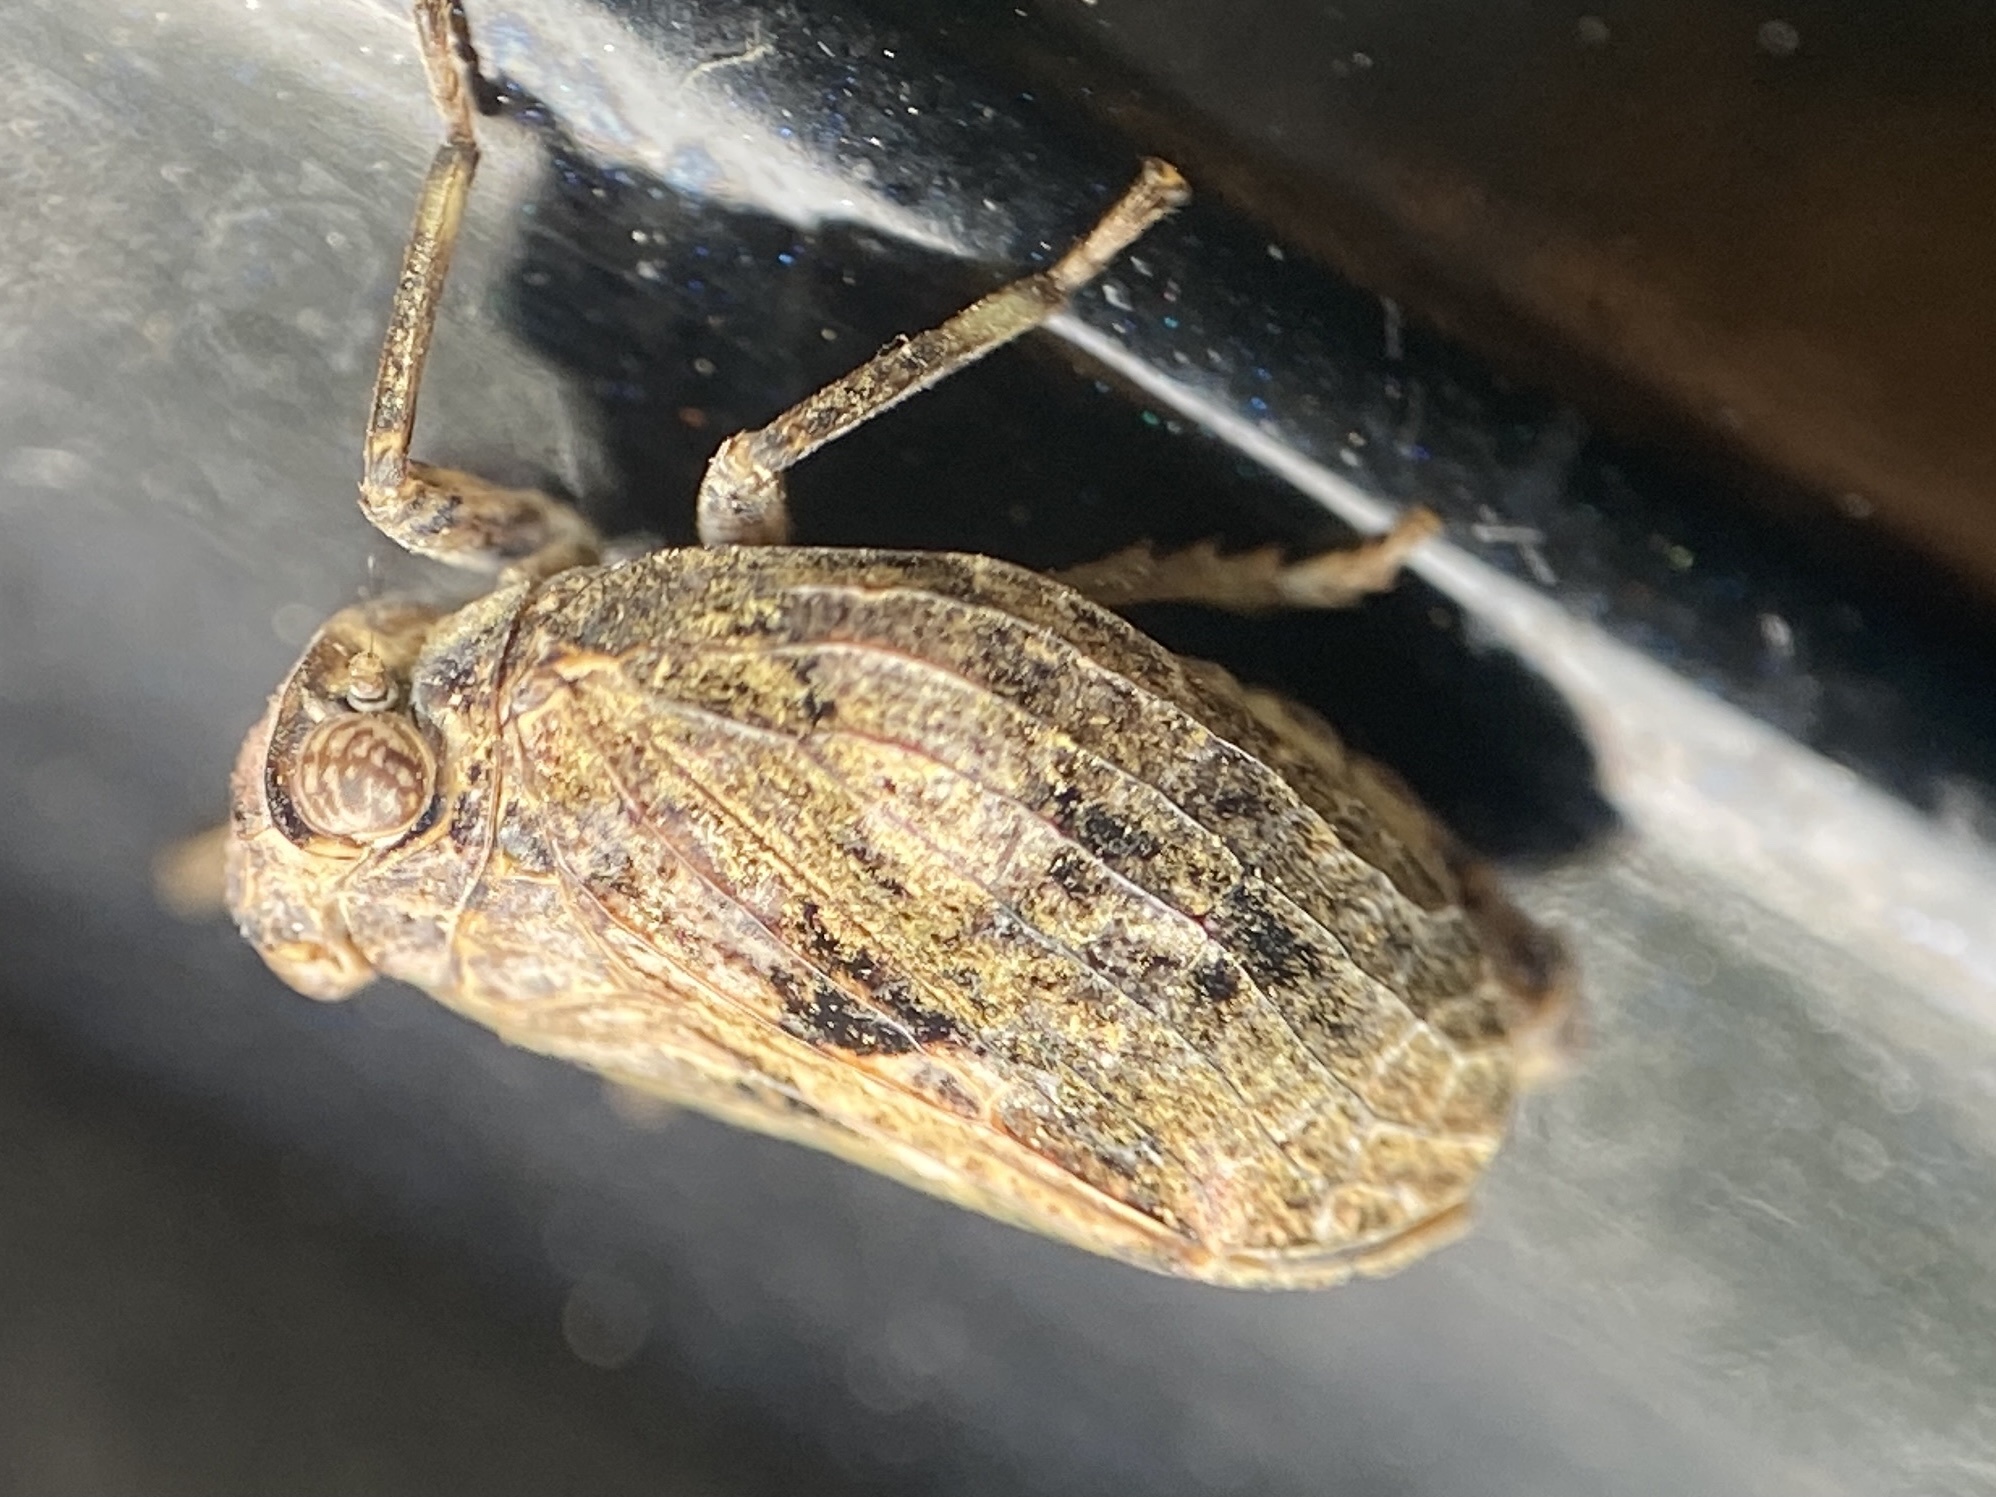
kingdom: Animalia
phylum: Arthropoda
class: Insecta
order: Hemiptera
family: Issidae
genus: Thionia
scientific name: Thionia elliptica
